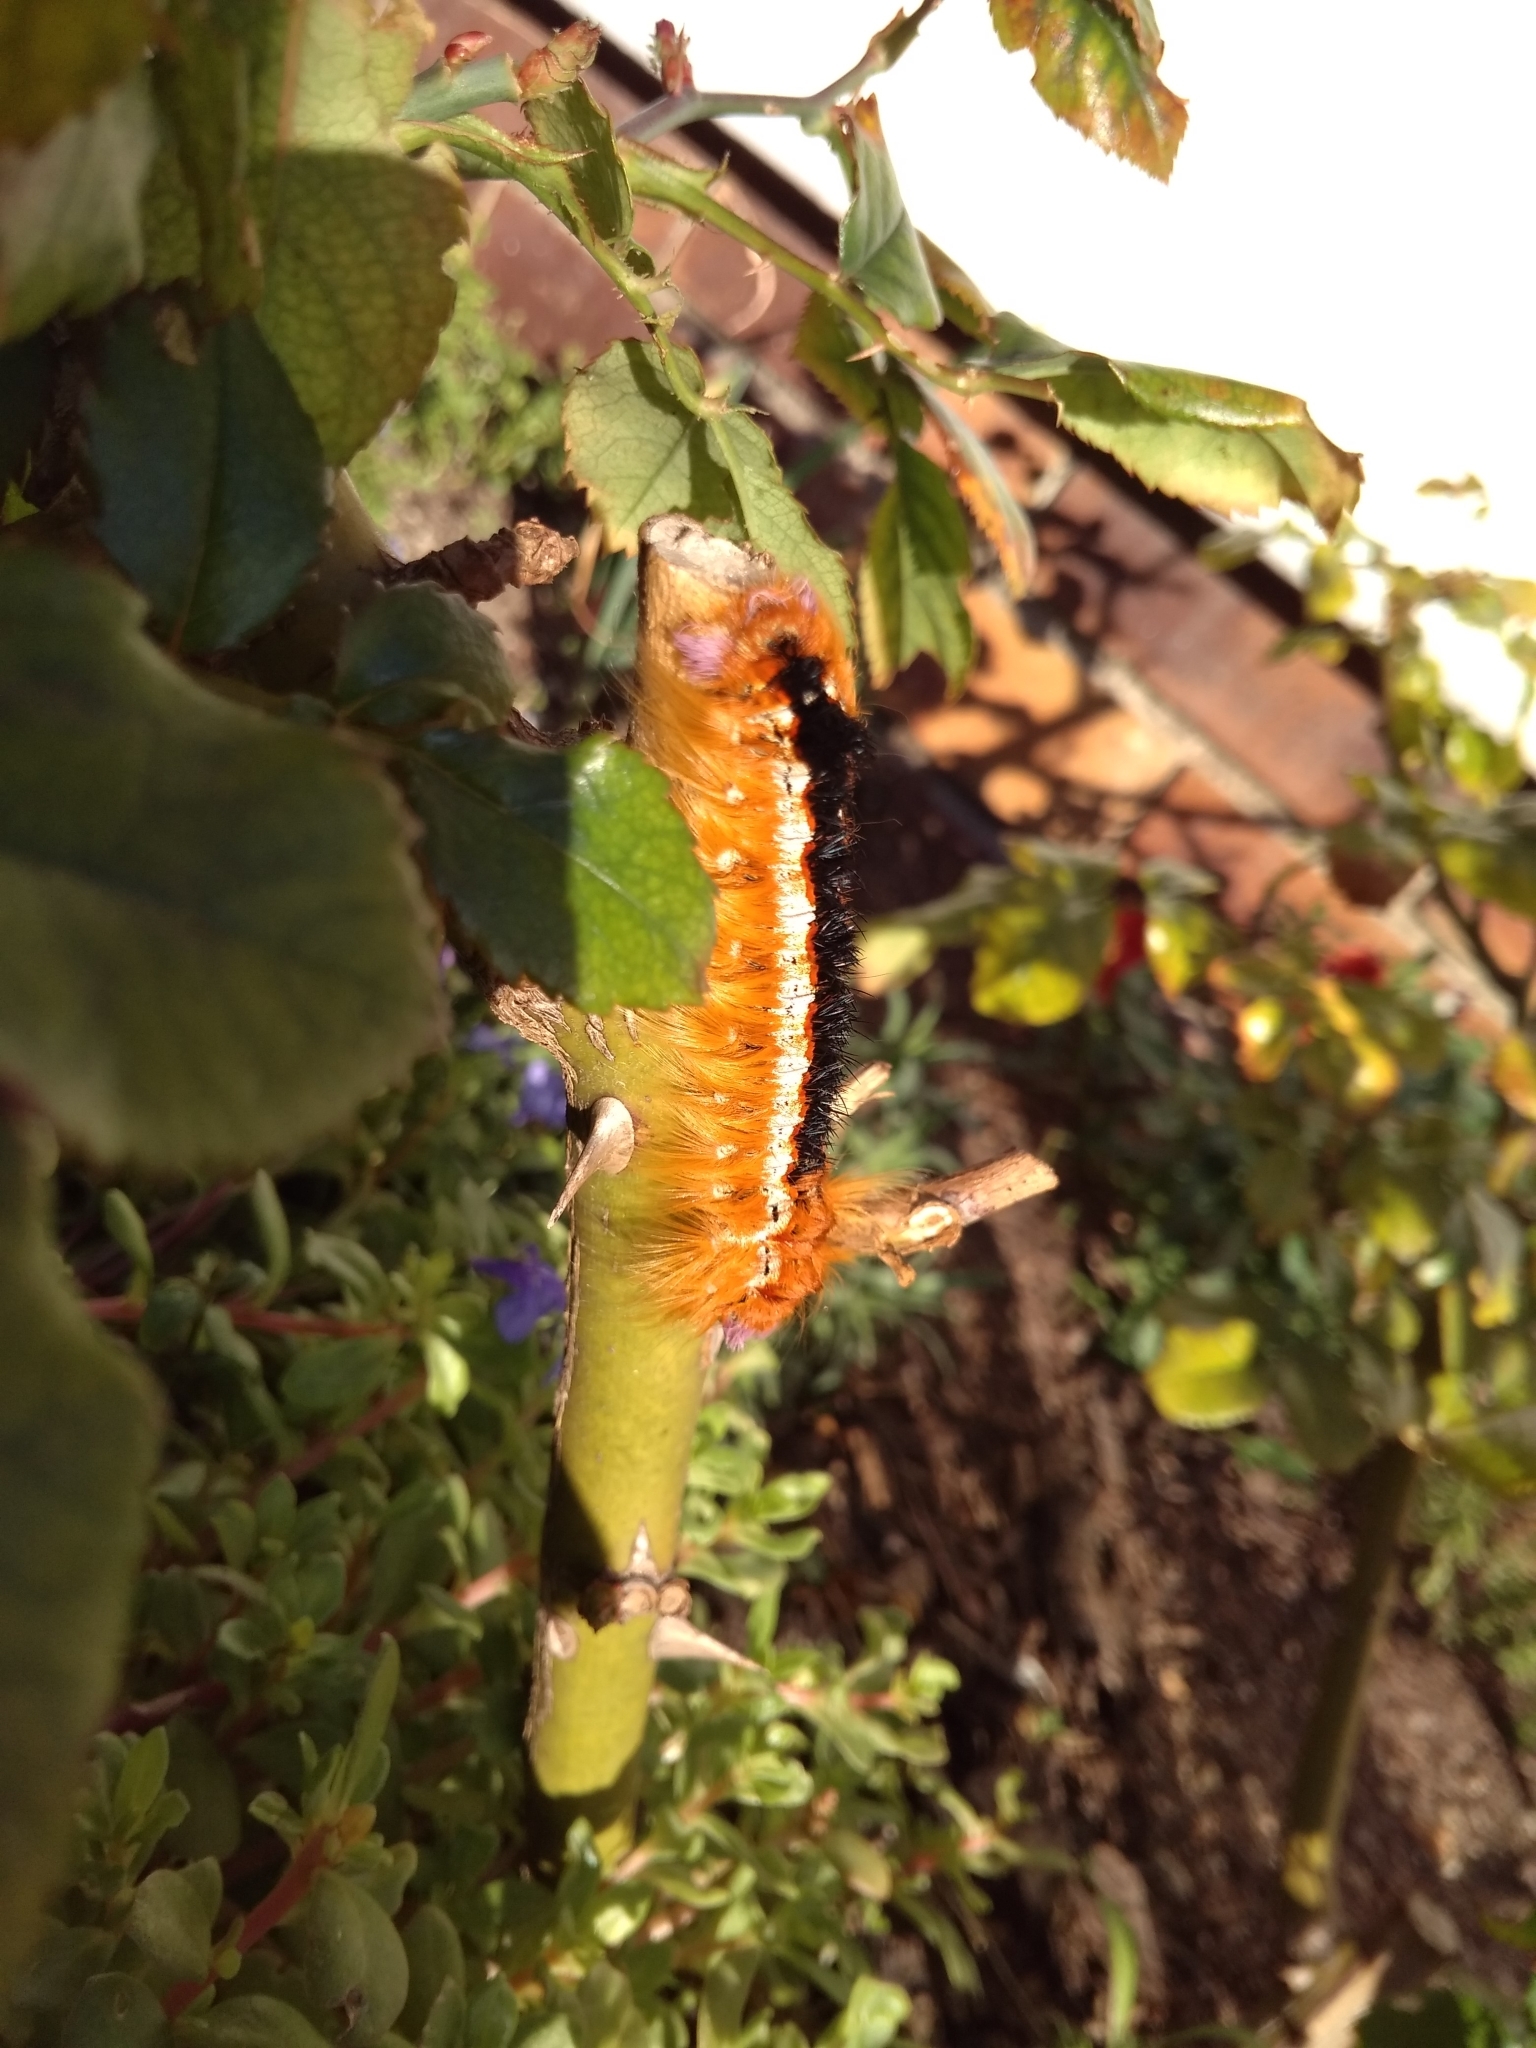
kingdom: Animalia
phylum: Arthropoda
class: Insecta
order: Lepidoptera
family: Lasiocampidae
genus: Eutricha
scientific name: Eutricha capensis
